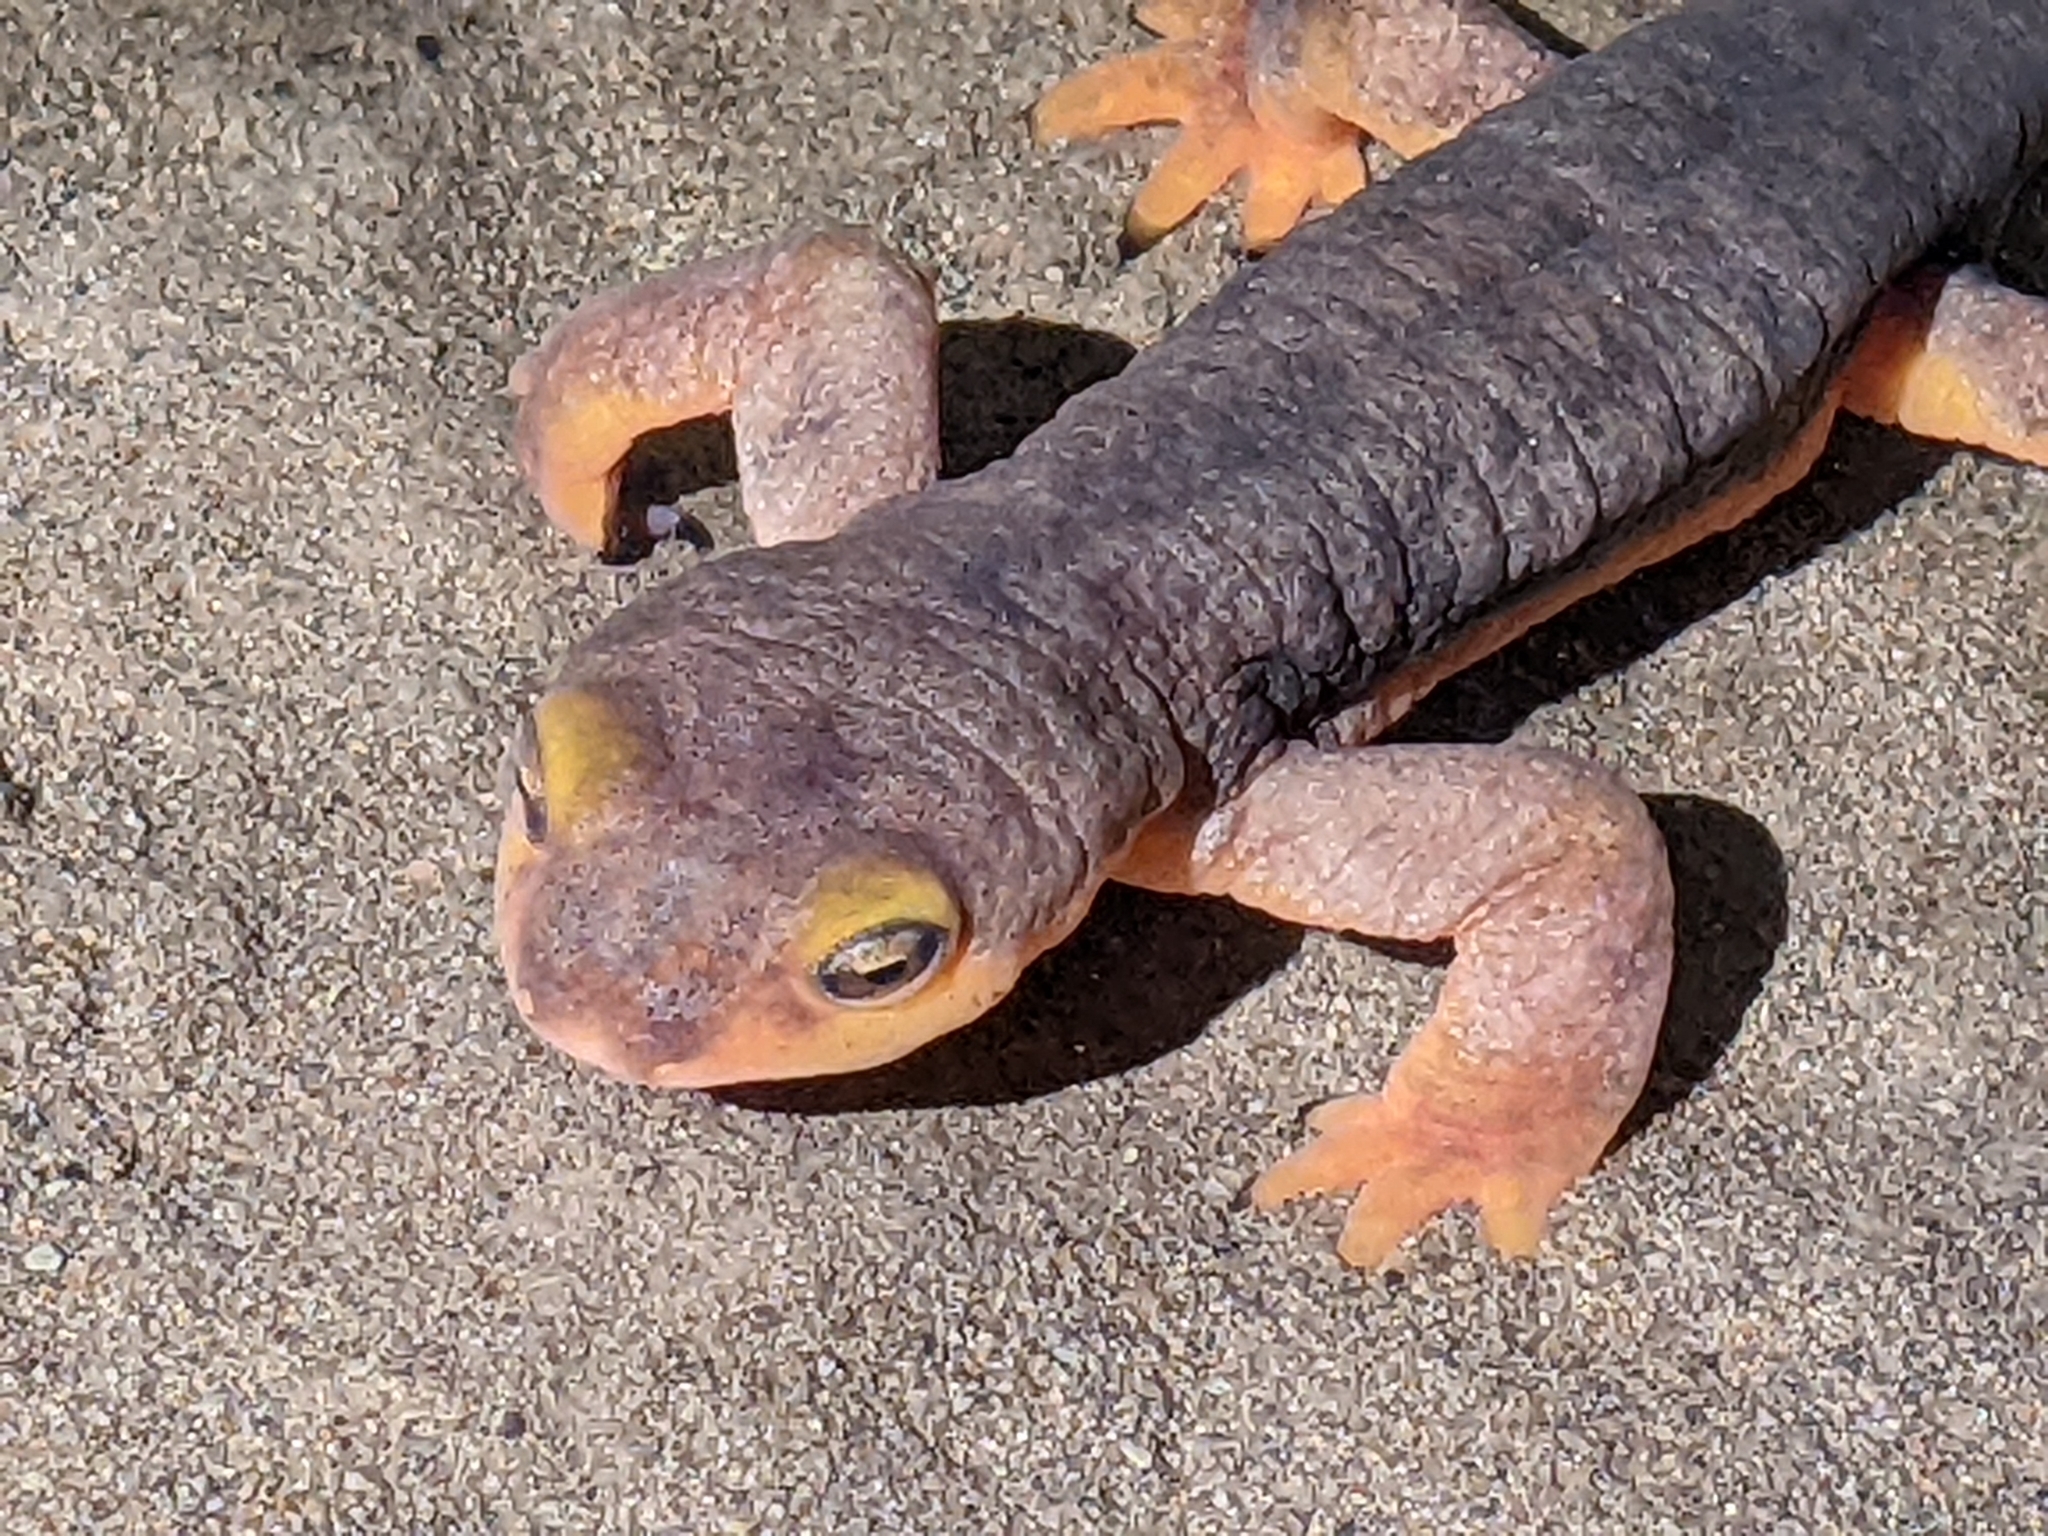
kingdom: Animalia
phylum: Chordata
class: Amphibia
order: Caudata
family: Salamandridae
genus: Taricha
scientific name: Taricha torosa
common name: California newt
